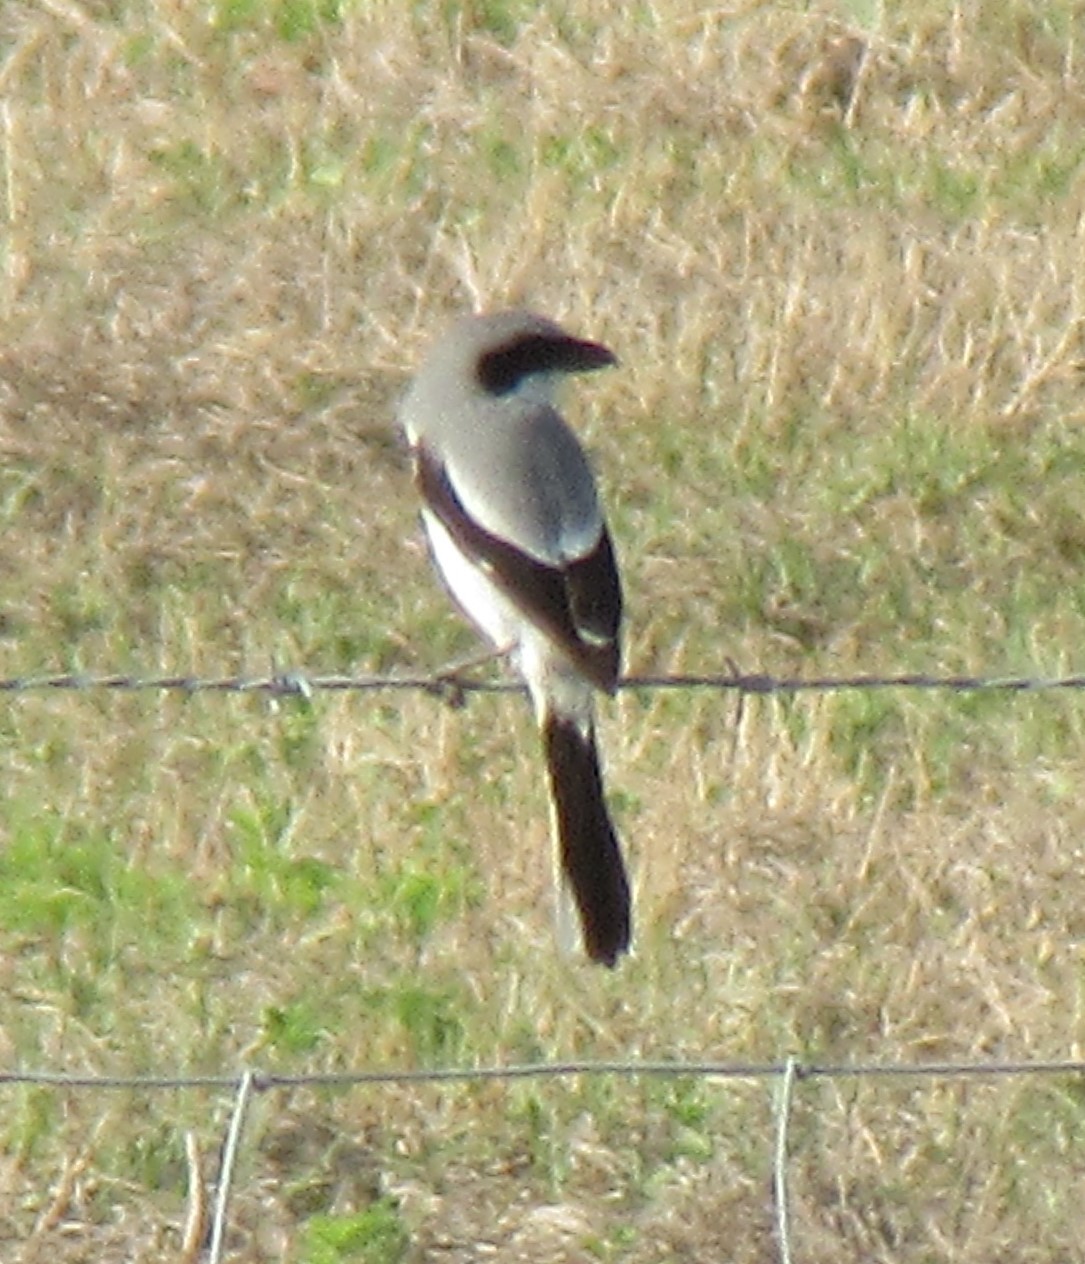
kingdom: Animalia
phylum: Chordata
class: Aves
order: Passeriformes
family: Laniidae
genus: Lanius
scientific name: Lanius ludovicianus
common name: Loggerhead shrike
